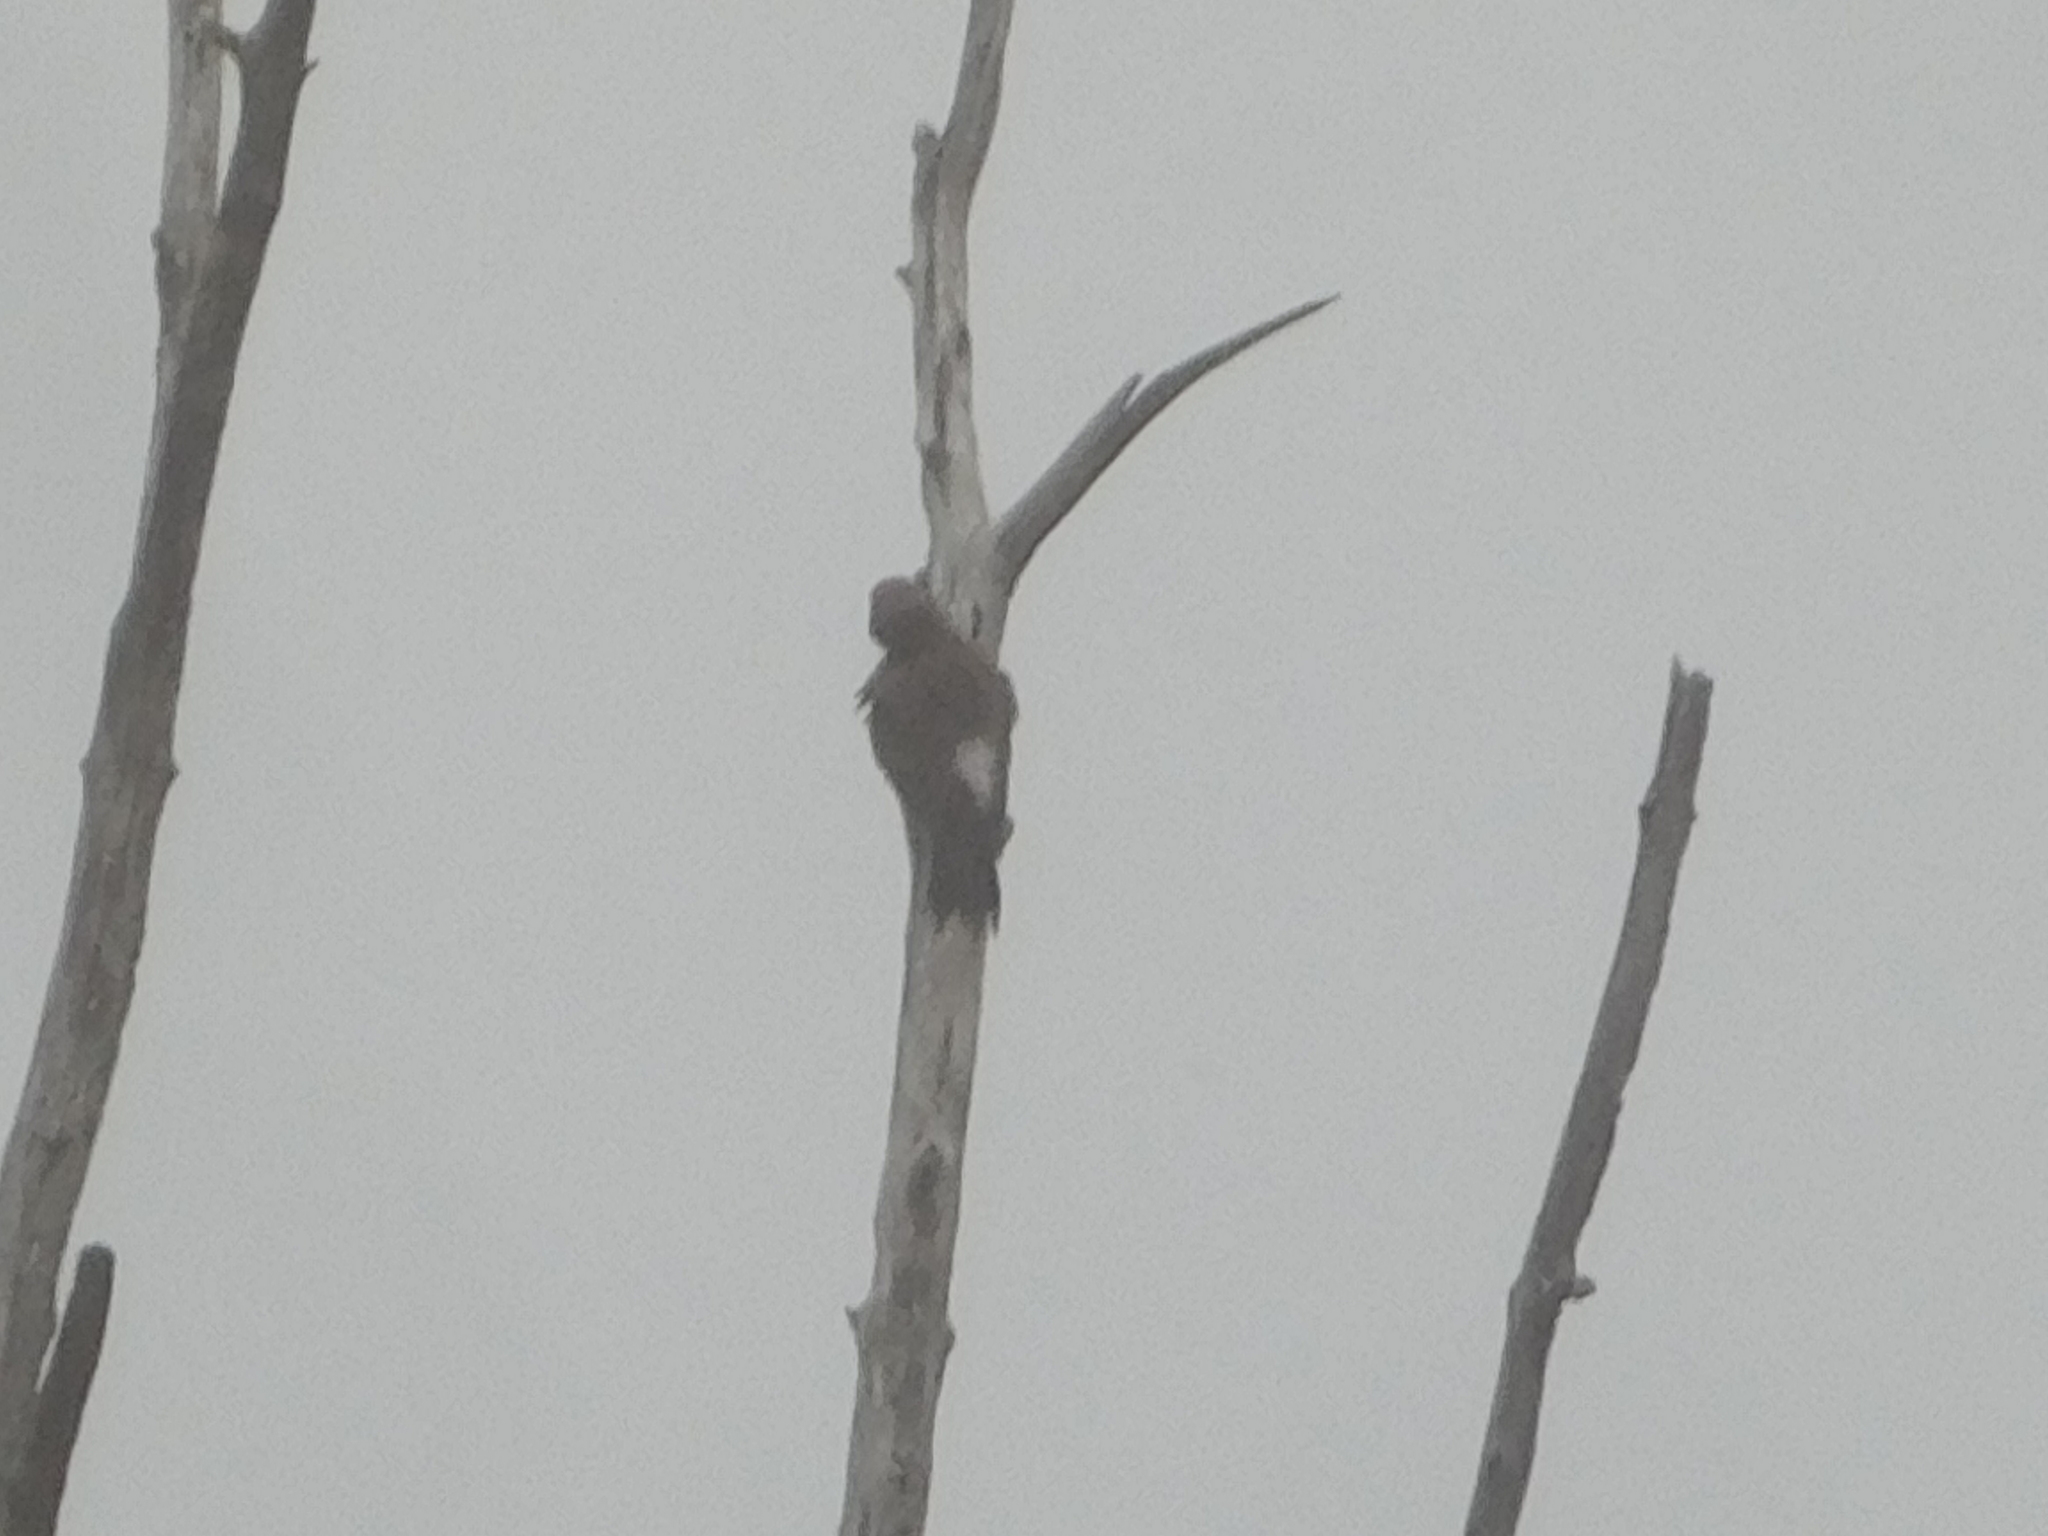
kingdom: Animalia
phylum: Chordata
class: Aves
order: Piciformes
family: Picidae
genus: Colaptes
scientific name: Colaptes auratus
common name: Northern flicker
